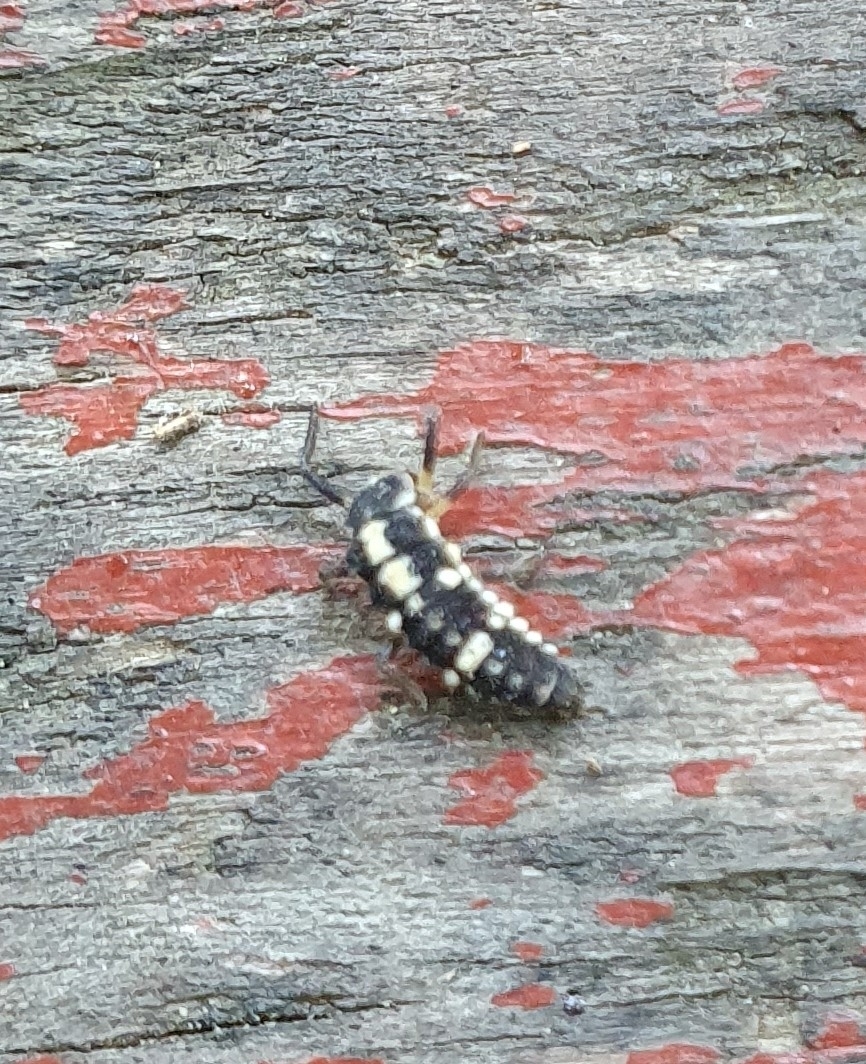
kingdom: Animalia
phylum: Arthropoda
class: Insecta
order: Coleoptera
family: Coccinellidae
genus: Propylaea
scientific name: Propylaea quatuordecimpunctata
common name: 14-spotted ladybird beetle
